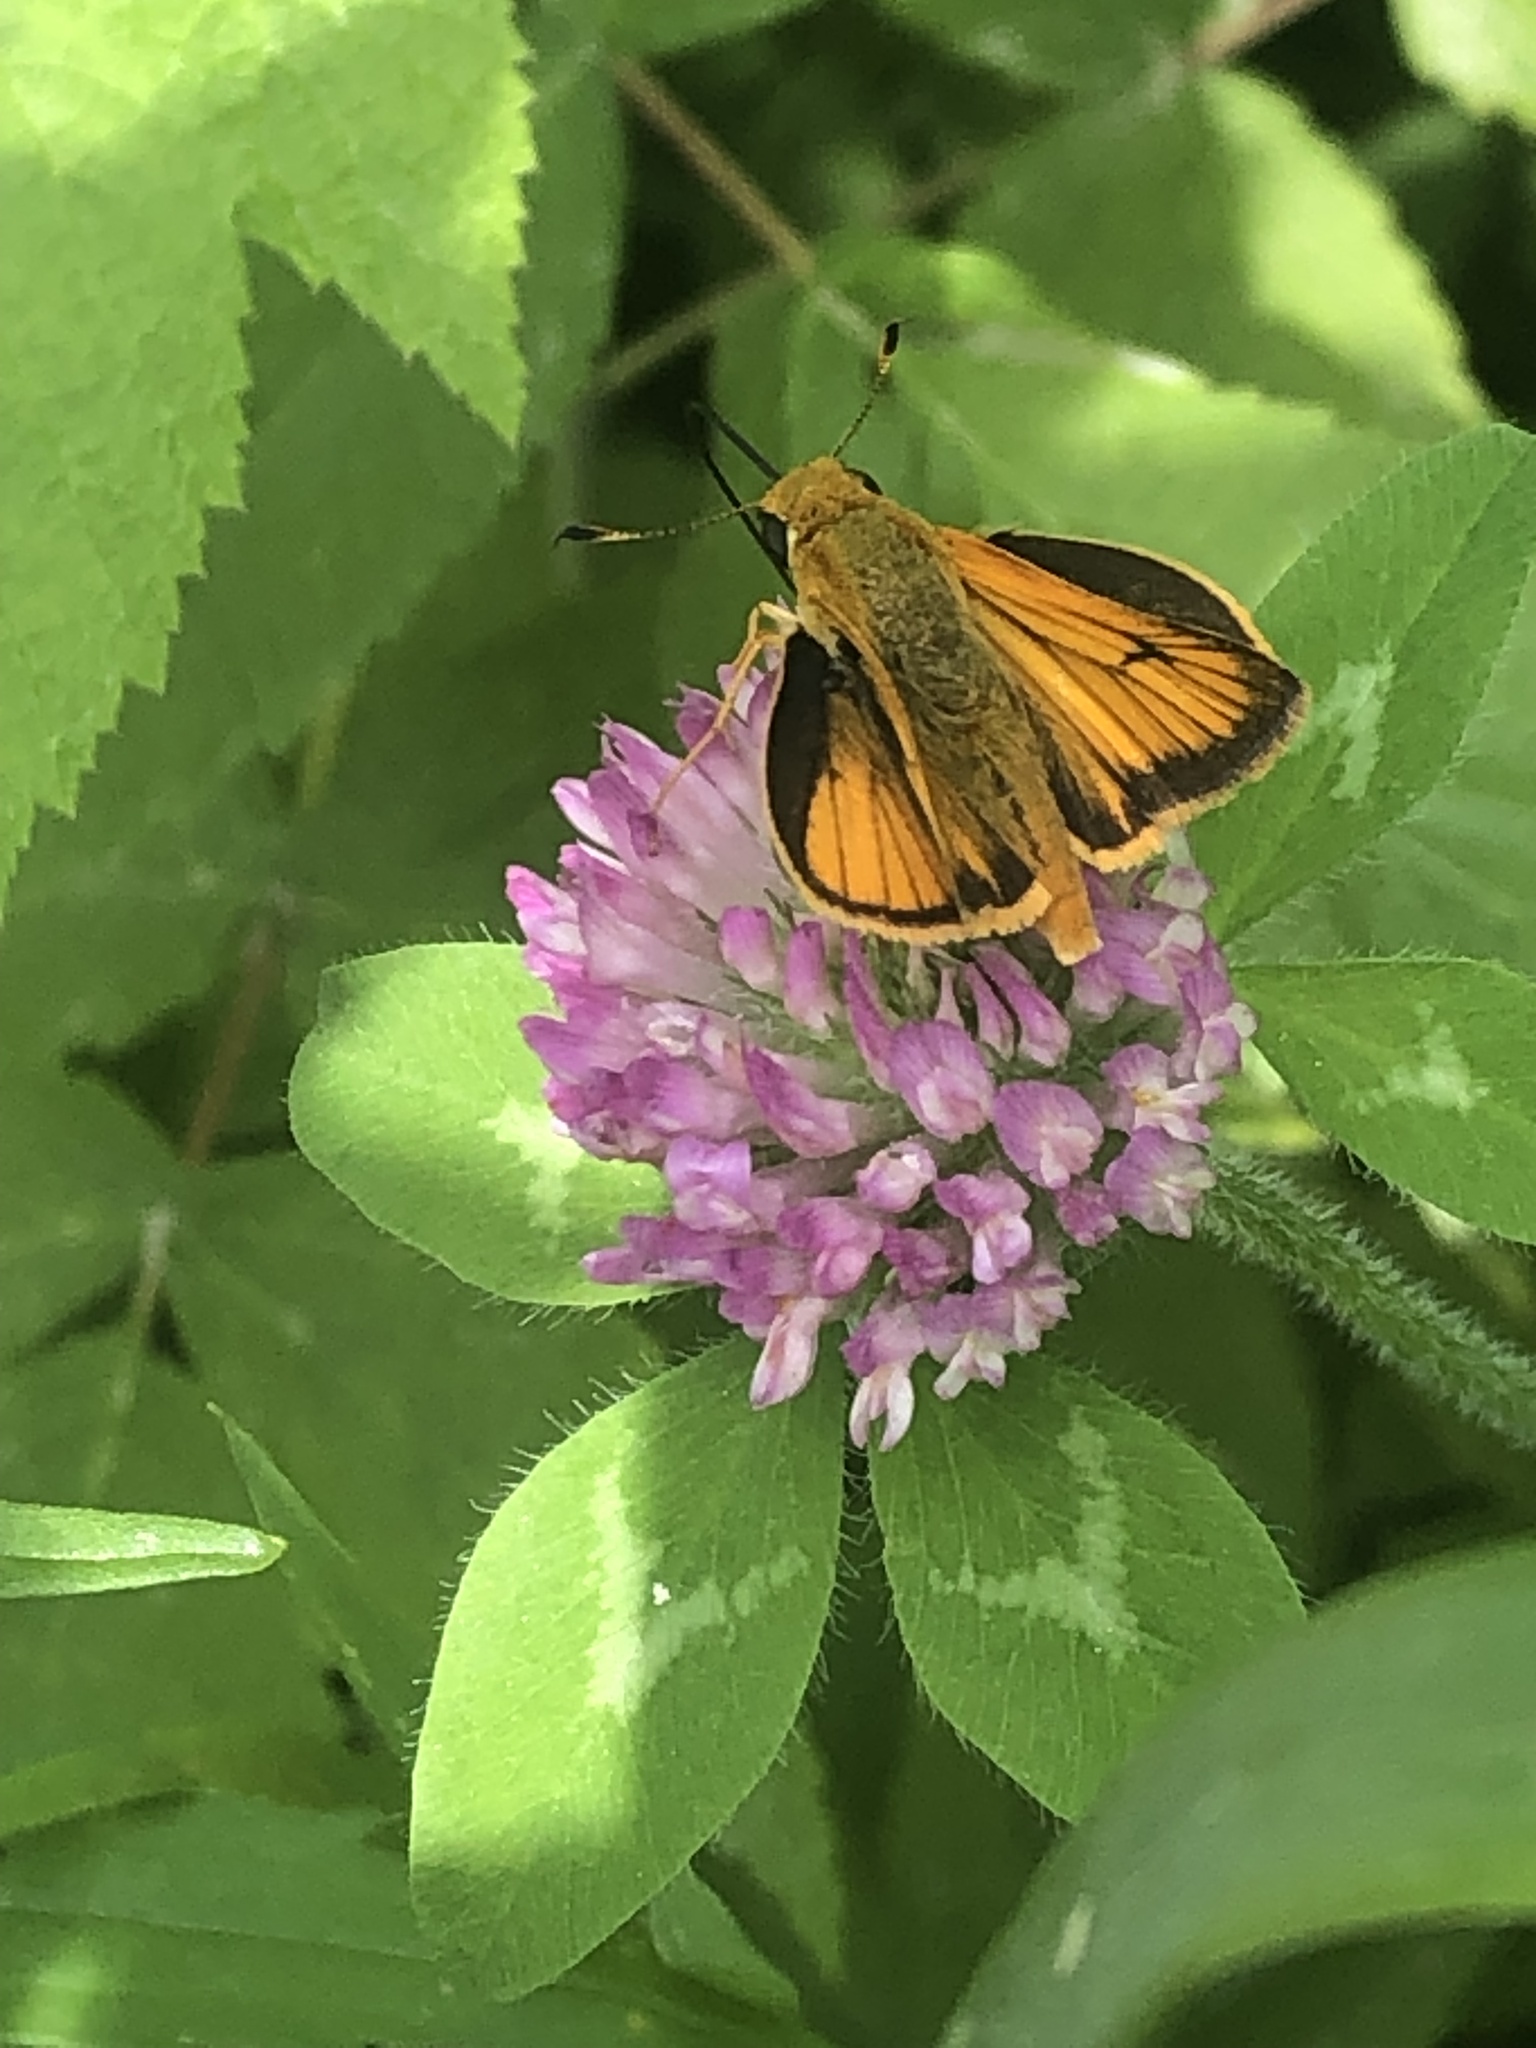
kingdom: Animalia
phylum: Arthropoda
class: Insecta
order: Lepidoptera
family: Hesperiidae
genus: Atrytone
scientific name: Atrytone delaware
